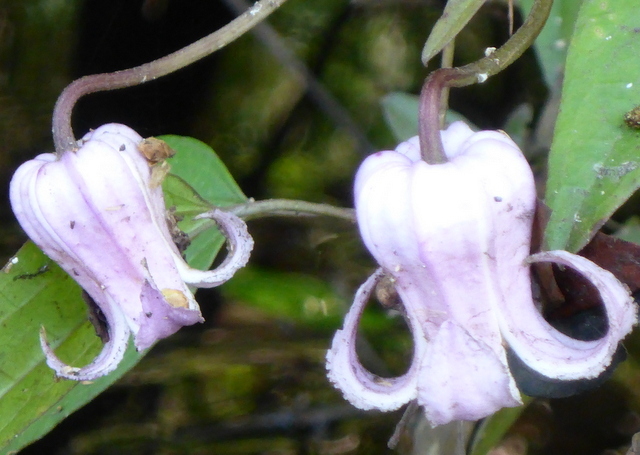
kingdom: Plantae
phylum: Tracheophyta
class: Magnoliopsida
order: Ranunculales
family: Ranunculaceae
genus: Clematis
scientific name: Clematis crispa
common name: Curly clematis
